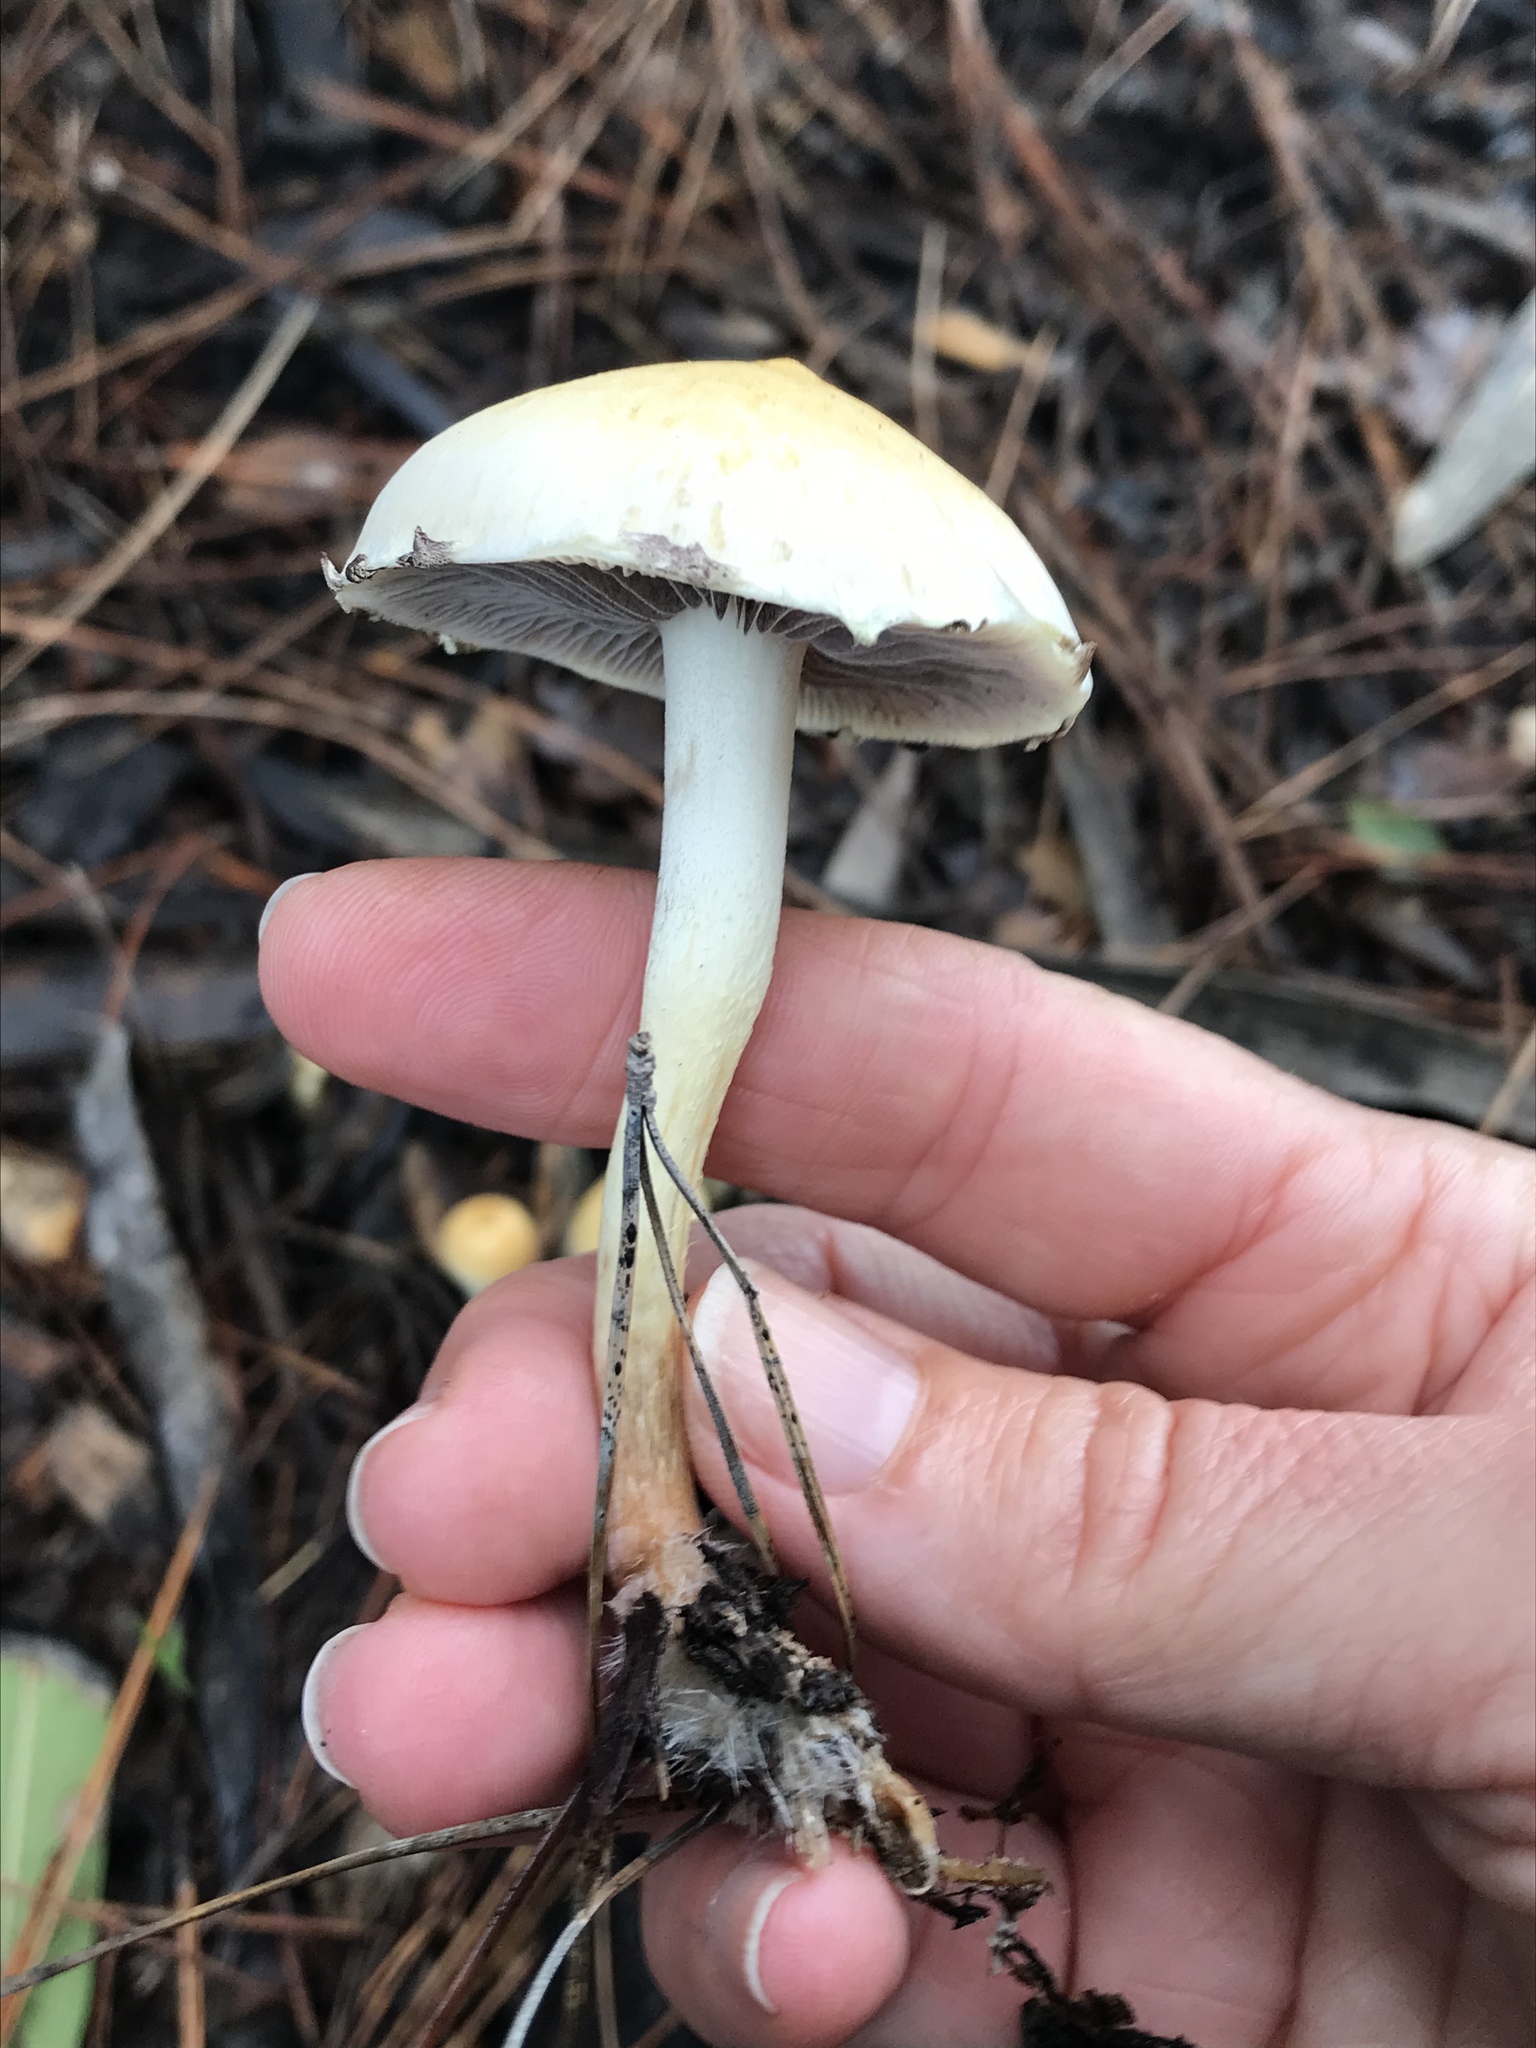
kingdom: Fungi
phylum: Basidiomycota
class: Agaricomycetes
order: Agaricales
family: Strophariaceae
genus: Leratiomyces
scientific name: Leratiomyces percevalii
